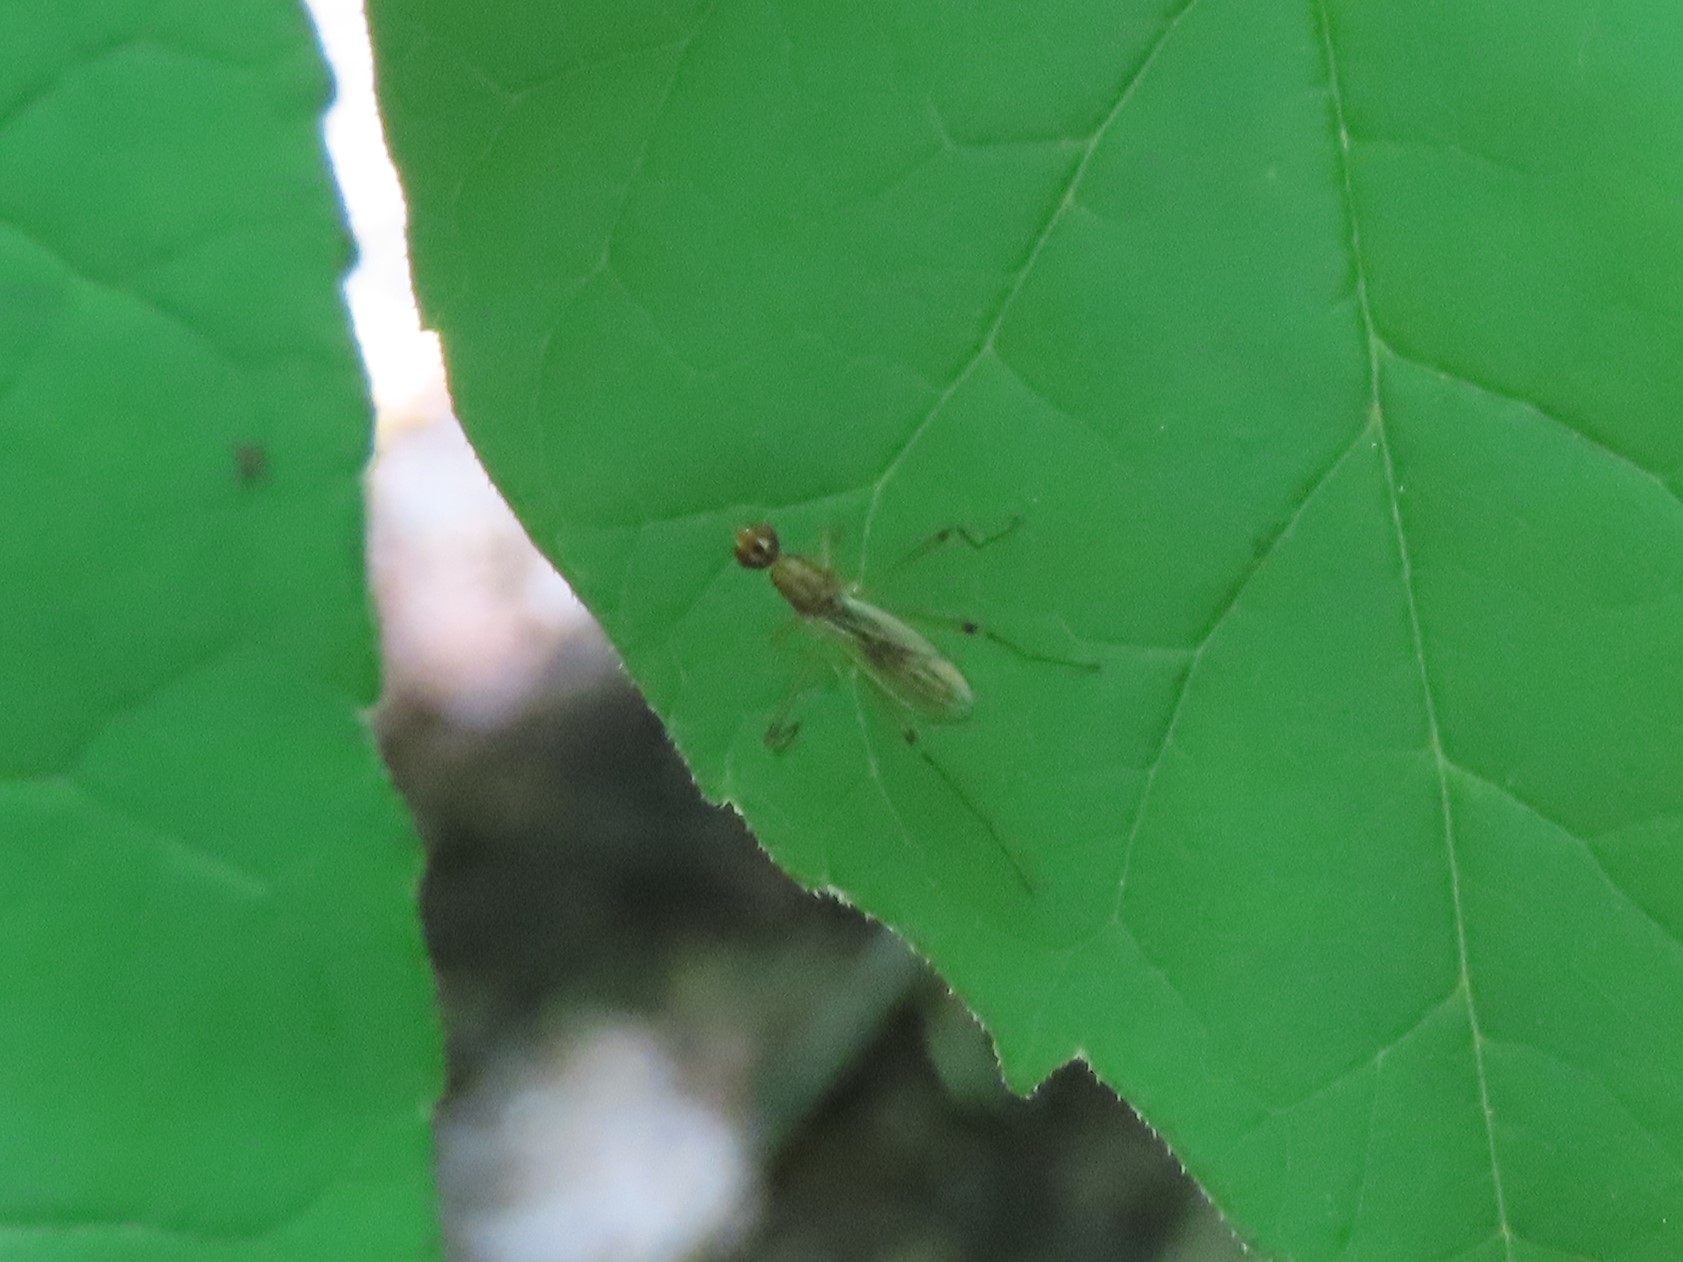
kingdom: Animalia
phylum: Arthropoda
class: Insecta
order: Diptera
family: Micropezidae
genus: Compsobata
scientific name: Compsobata univitta
